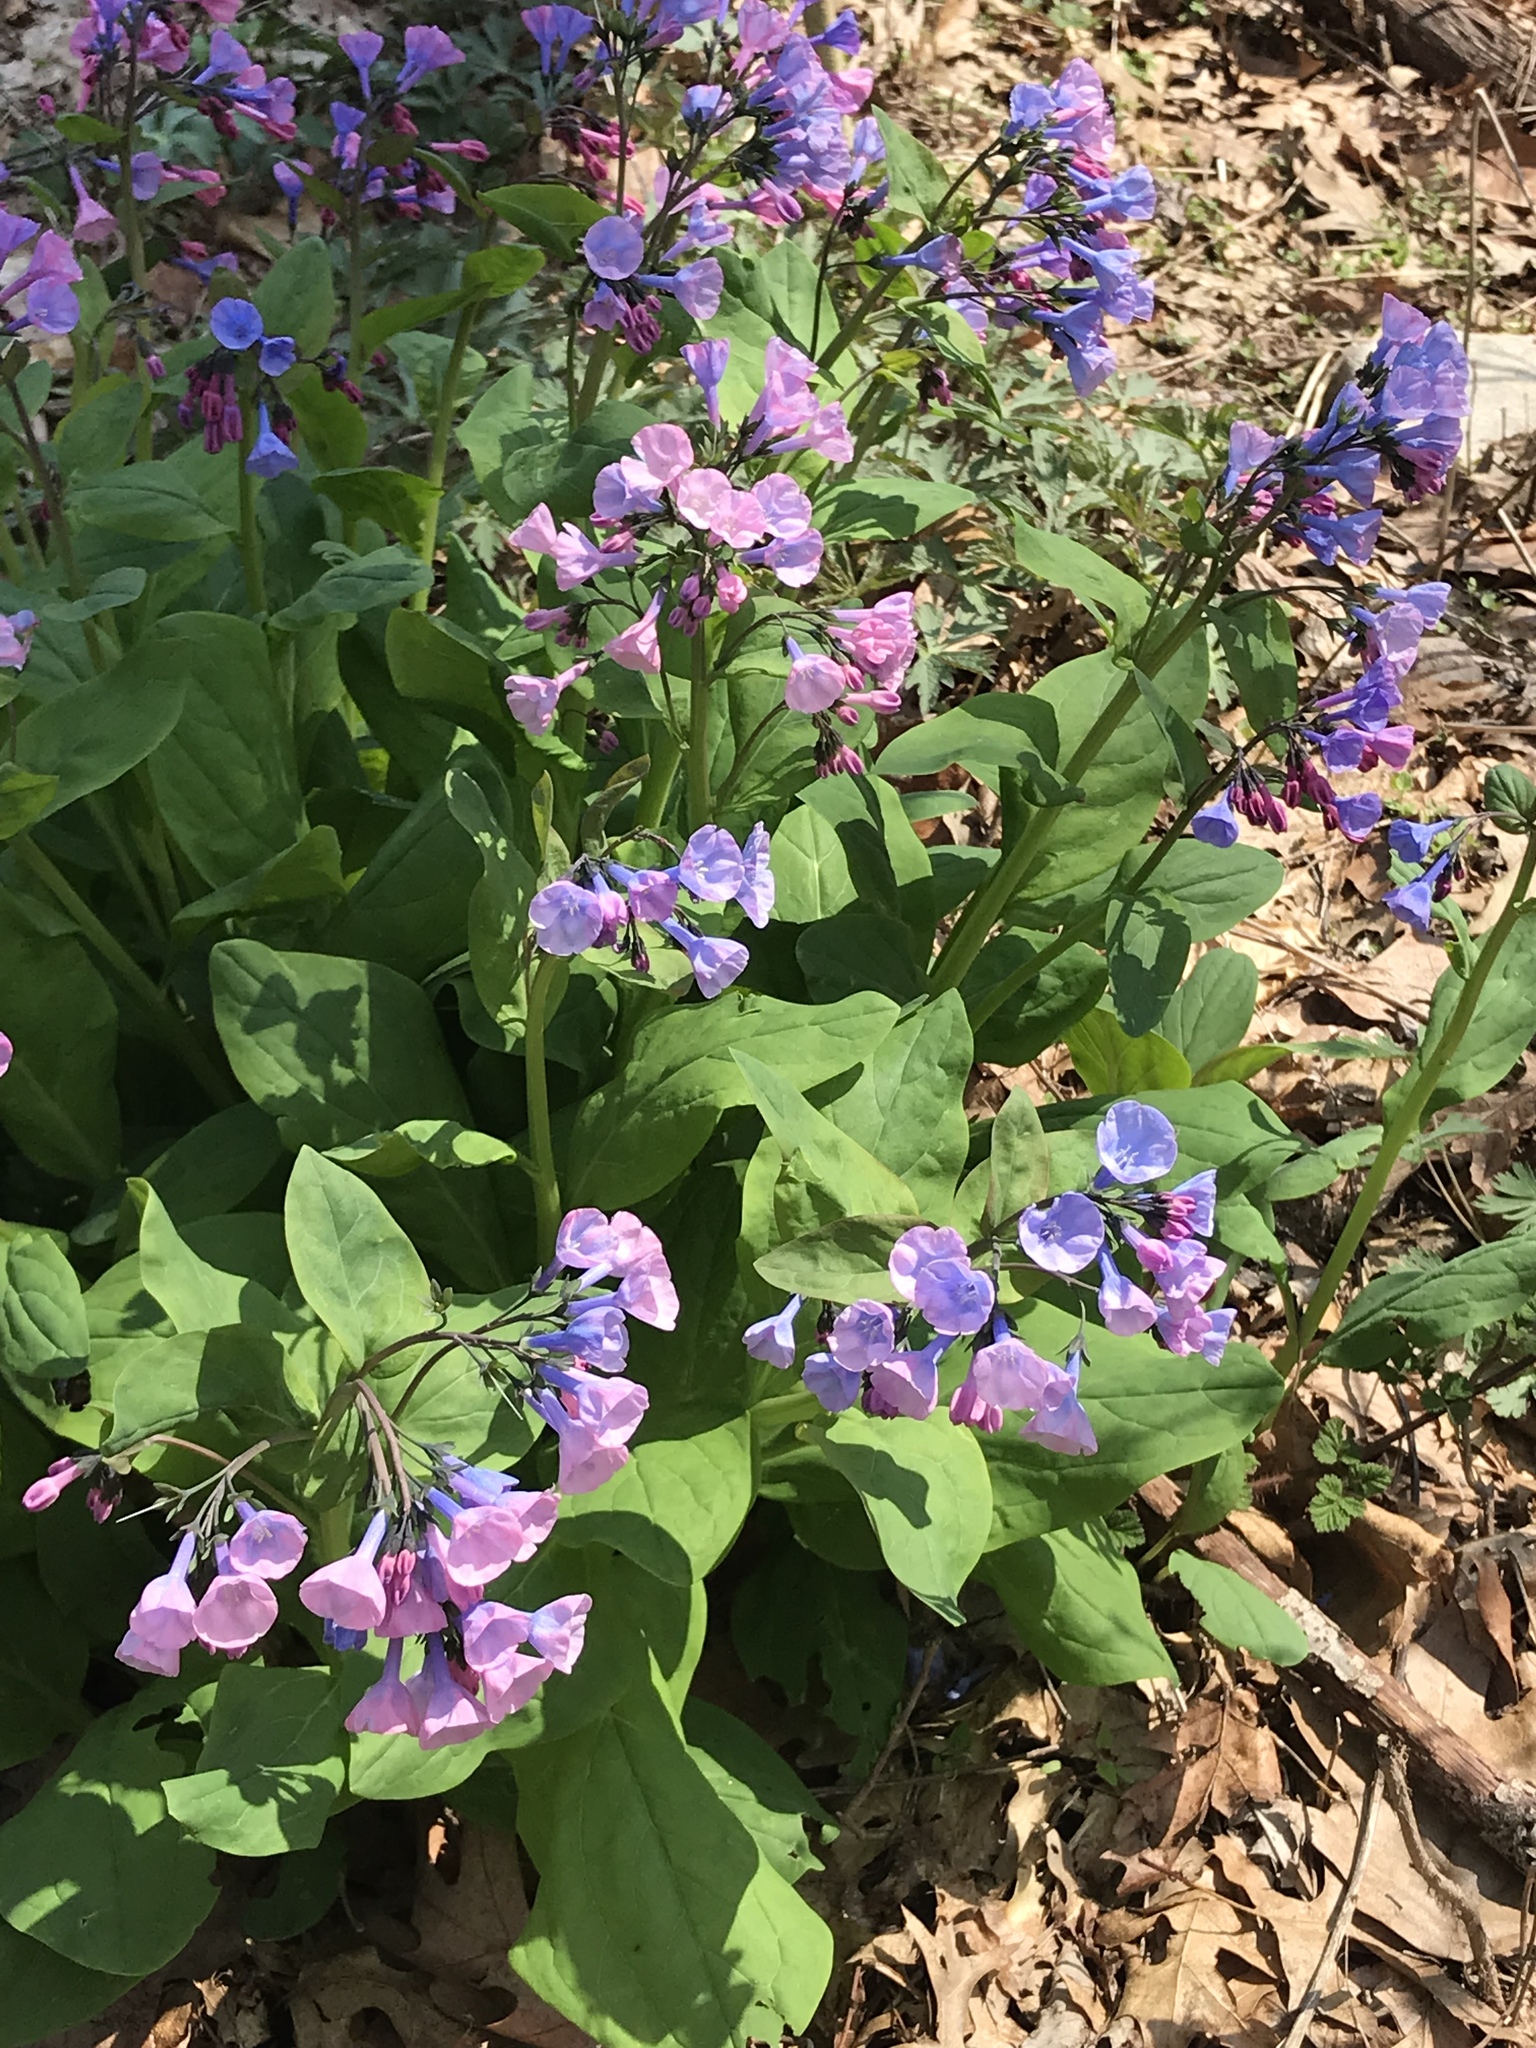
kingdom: Plantae
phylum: Tracheophyta
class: Magnoliopsida
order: Boraginales
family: Boraginaceae
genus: Mertensia
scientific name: Mertensia virginica
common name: Virginia bluebells
